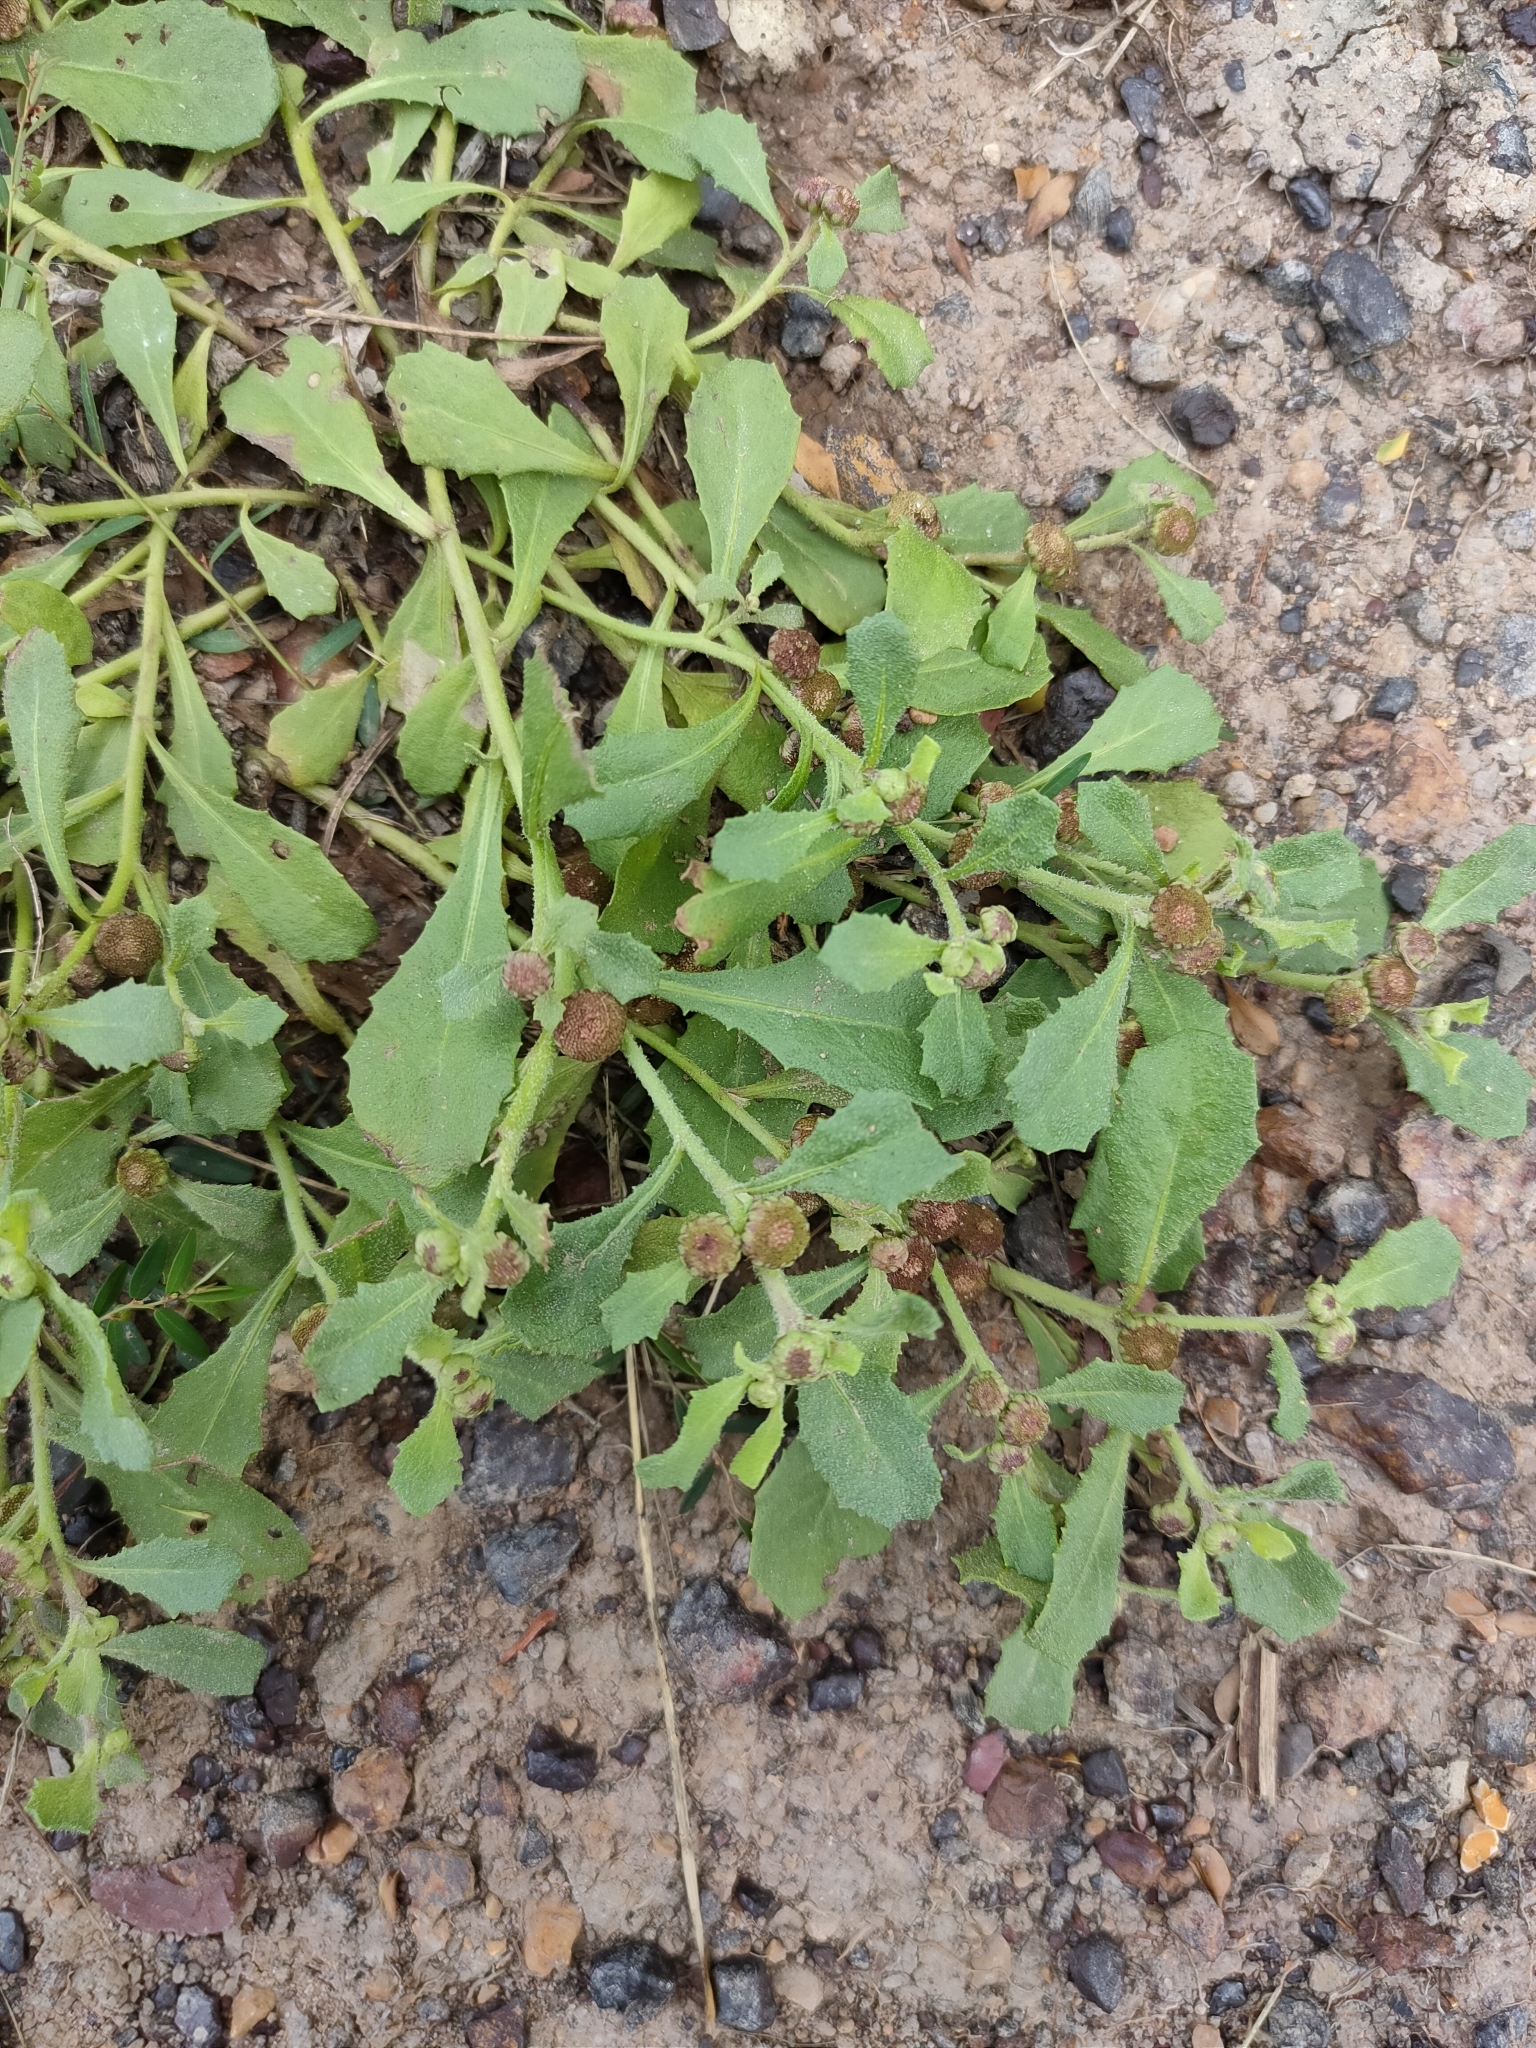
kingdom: Plantae
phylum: Tracheophyta
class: Magnoliopsida
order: Asterales
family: Asteraceae
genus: Sphaeromorphaea
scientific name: Sphaeromorphaea australis
